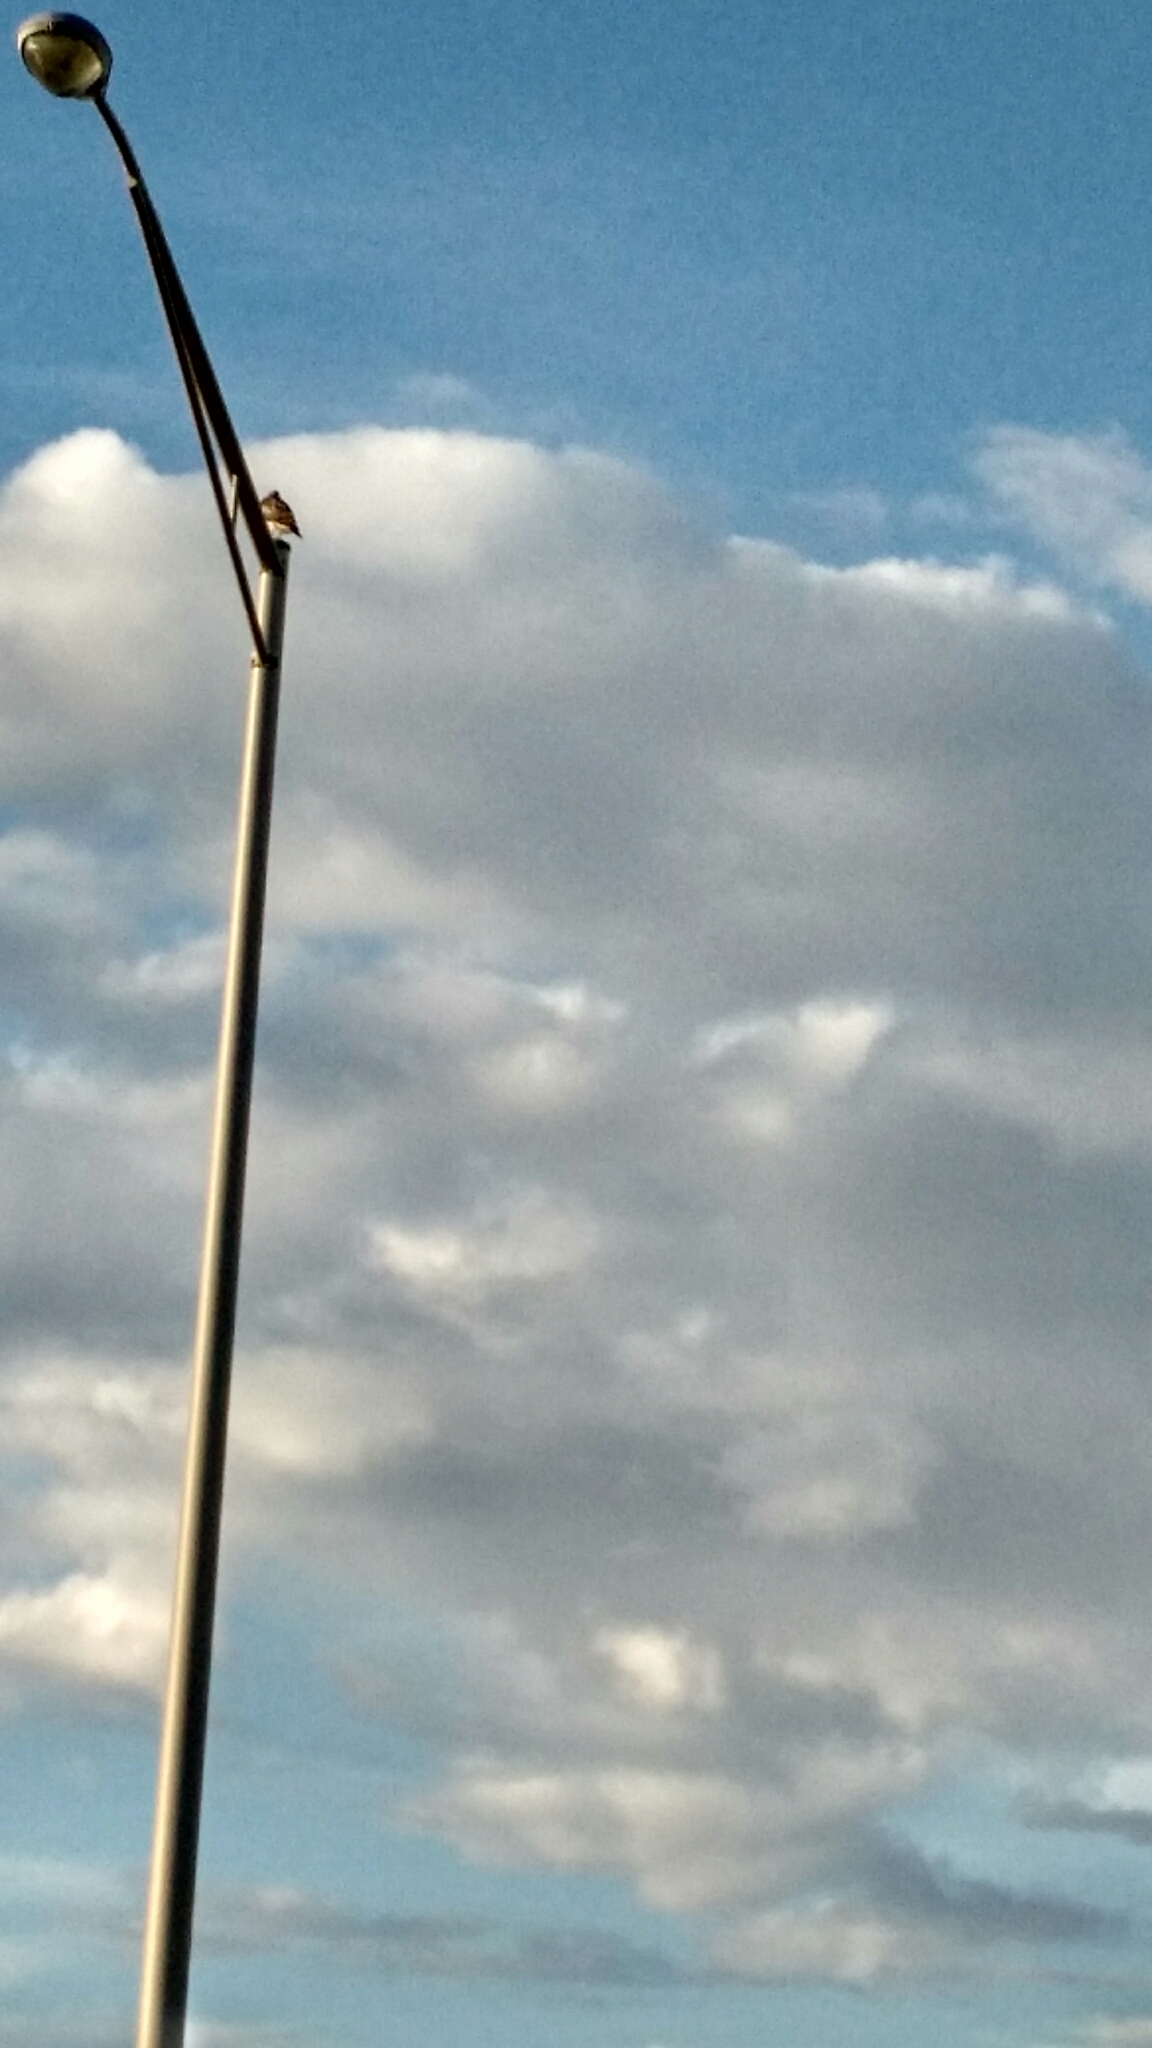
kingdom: Animalia
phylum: Chordata
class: Aves
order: Accipitriformes
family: Pandionidae
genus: Pandion
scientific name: Pandion haliaetus
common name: Osprey
